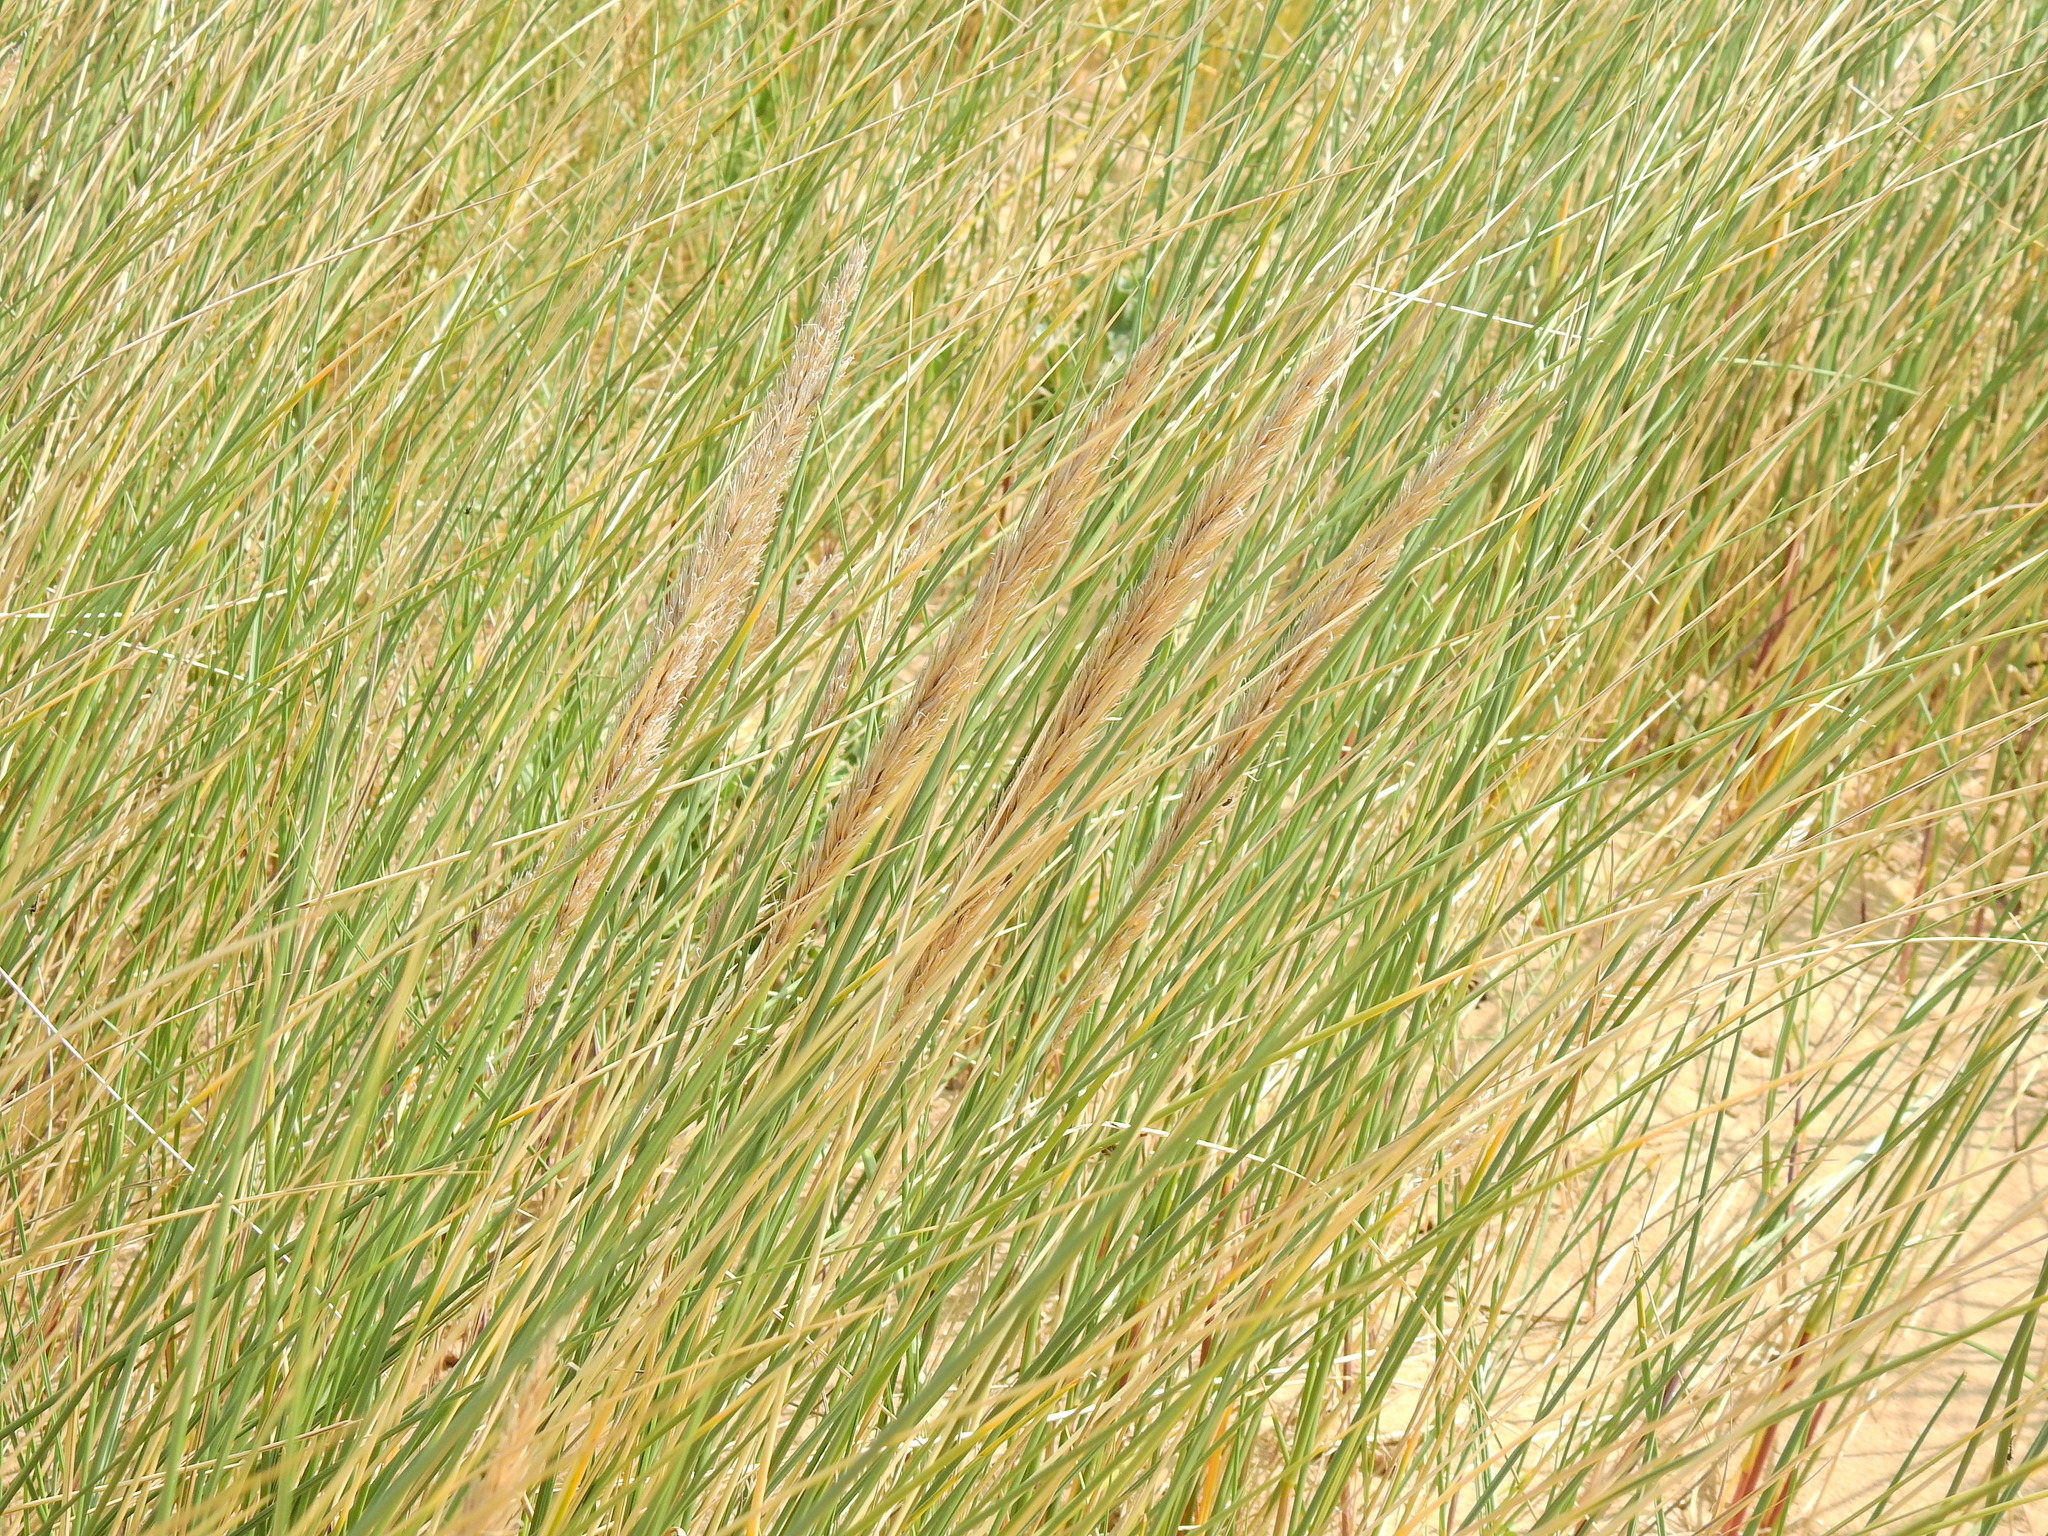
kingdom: Plantae
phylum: Tracheophyta
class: Liliopsida
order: Poales
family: Poaceae
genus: Calamagrostis
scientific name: Calamagrostis arenaria
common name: European beachgrass
